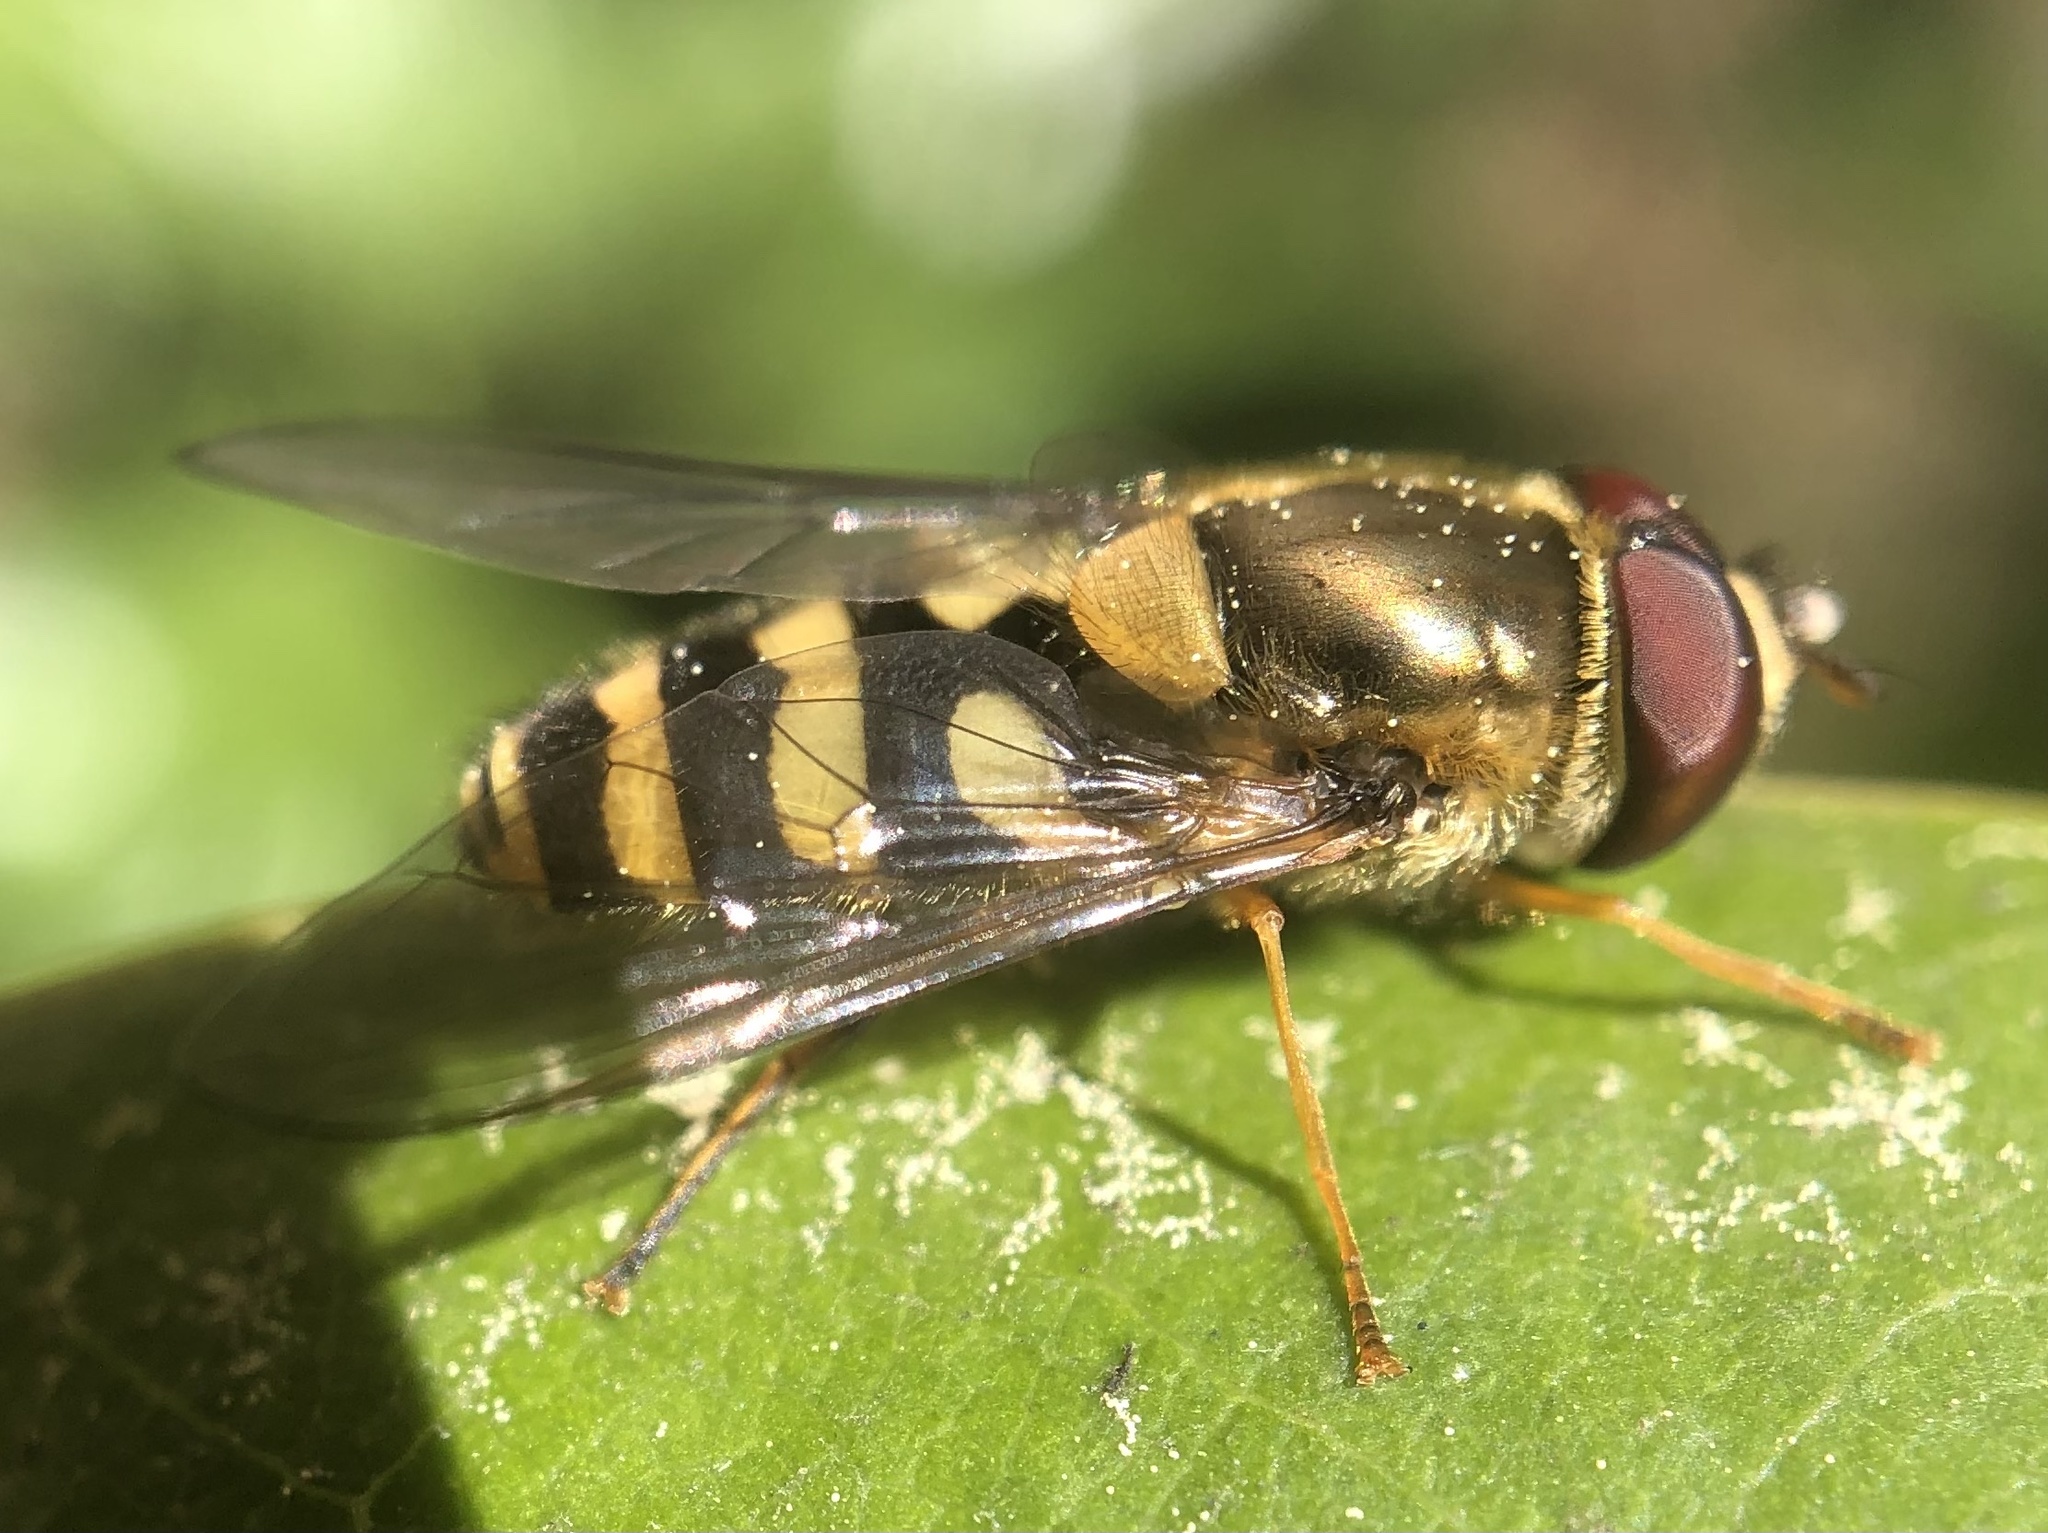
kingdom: Animalia
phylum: Arthropoda
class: Insecta
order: Diptera
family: Syrphidae
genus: Syrphus
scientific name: Syrphus
